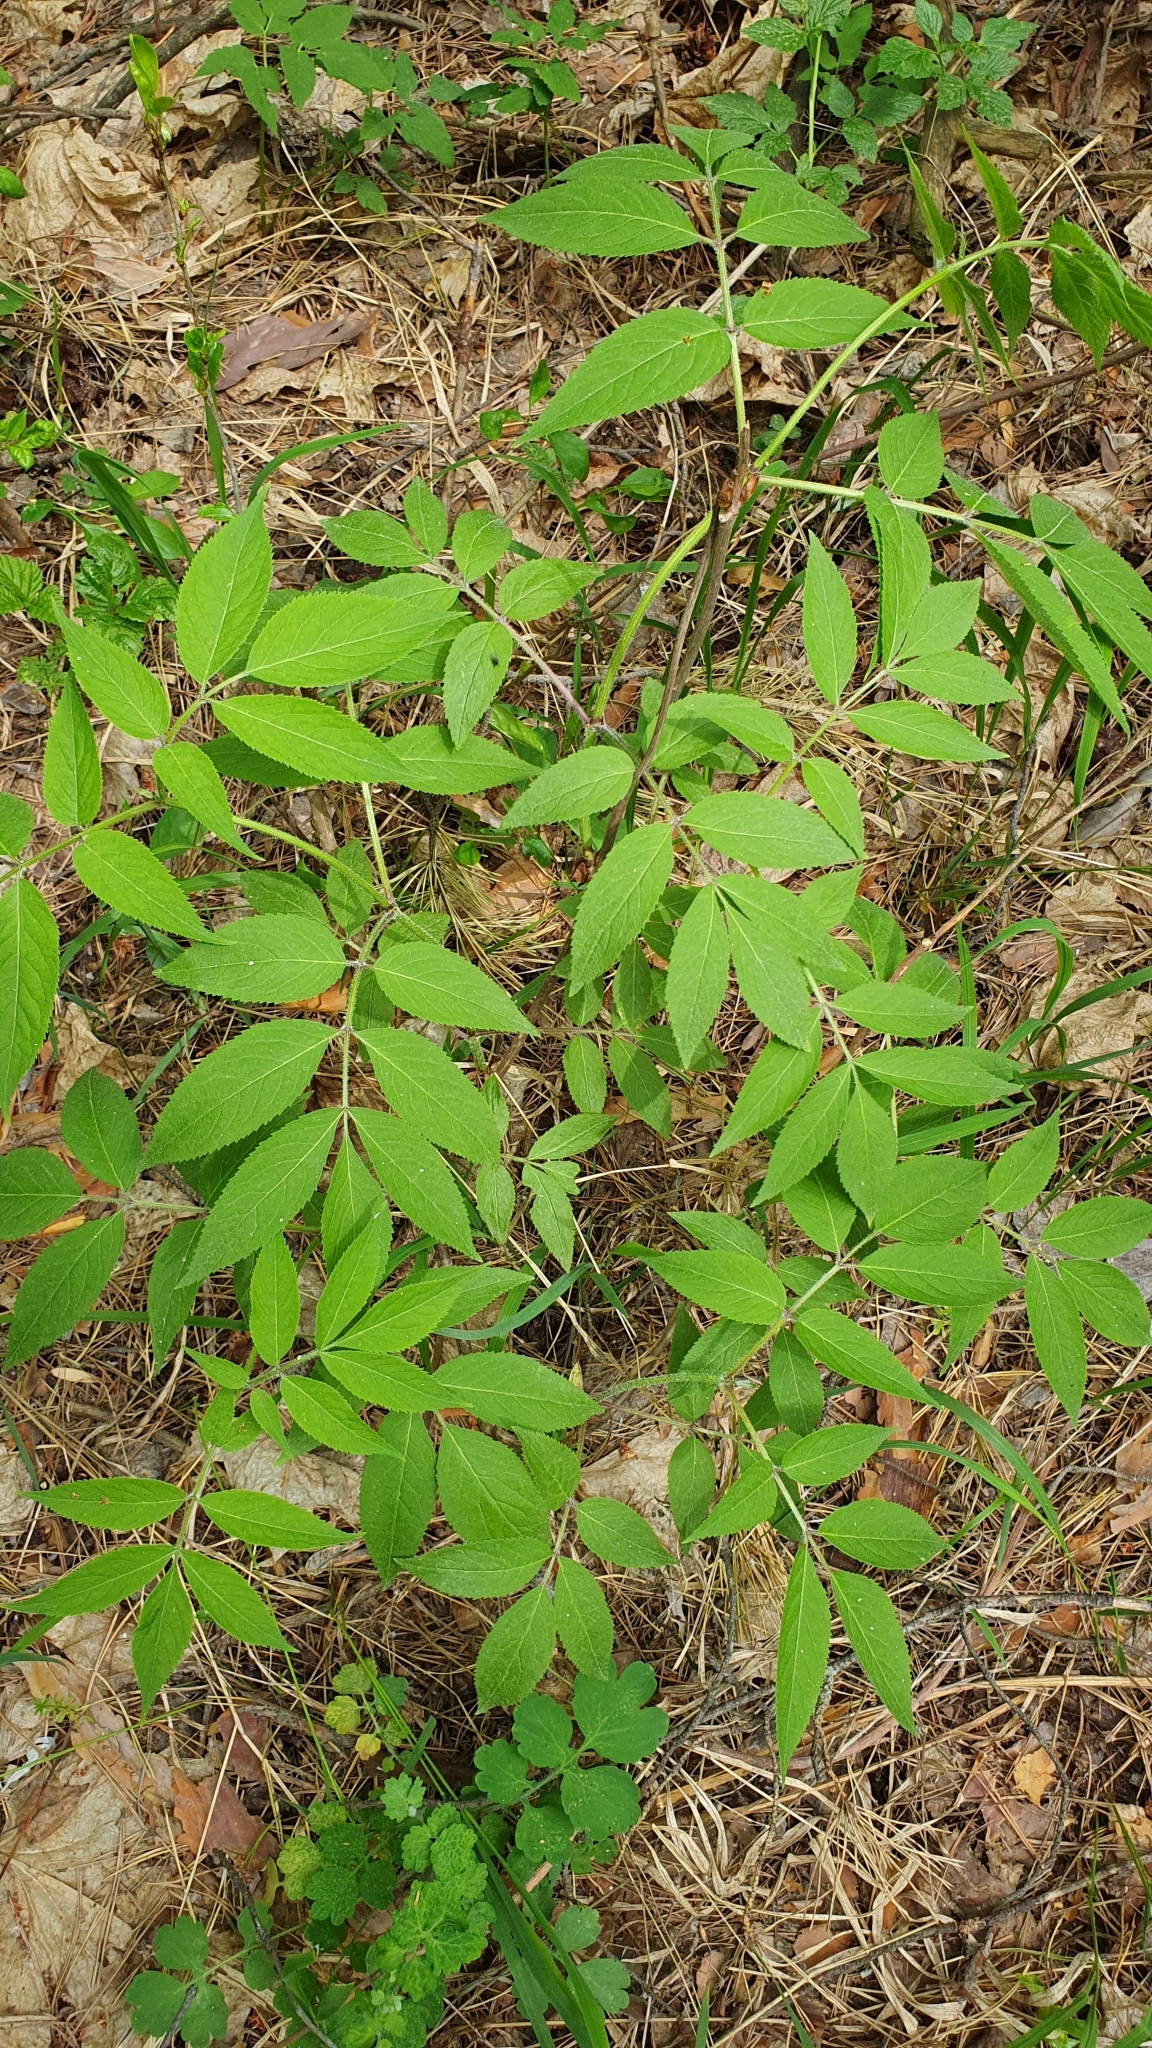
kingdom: Plantae
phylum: Tracheophyta
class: Magnoliopsida
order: Dipsacales
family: Viburnaceae
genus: Sambucus
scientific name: Sambucus racemosa
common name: Red-berried elder
